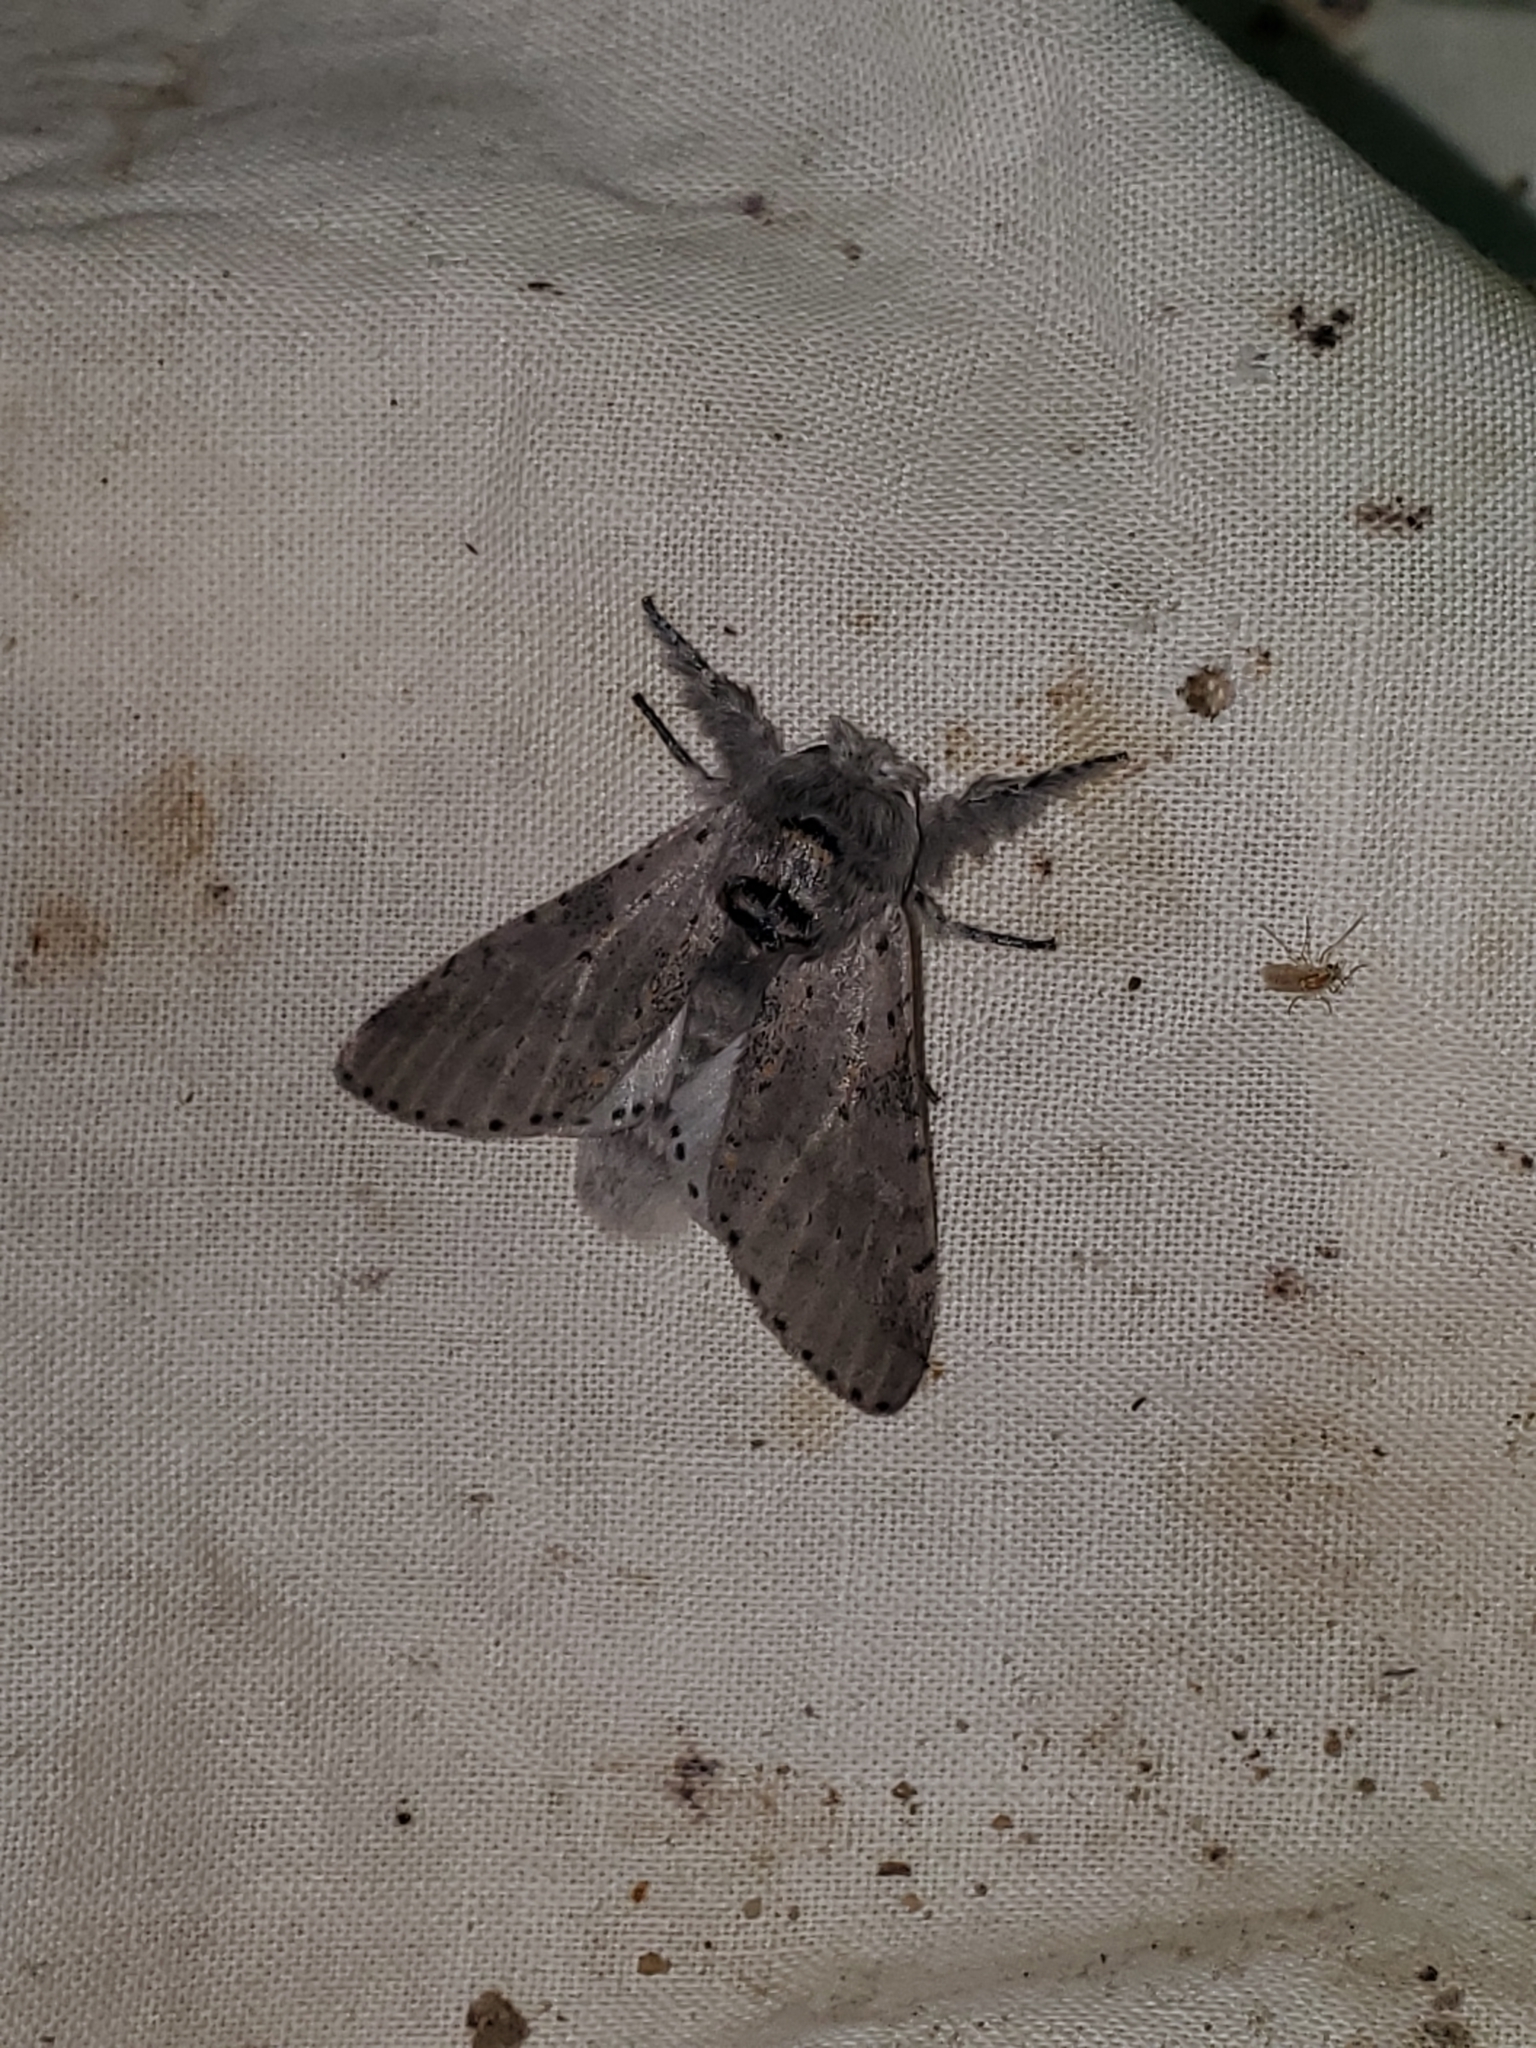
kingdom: Animalia
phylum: Arthropoda
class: Insecta
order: Lepidoptera
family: Notodontidae
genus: Furcula
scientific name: Furcula cinerea
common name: Gray furcula
